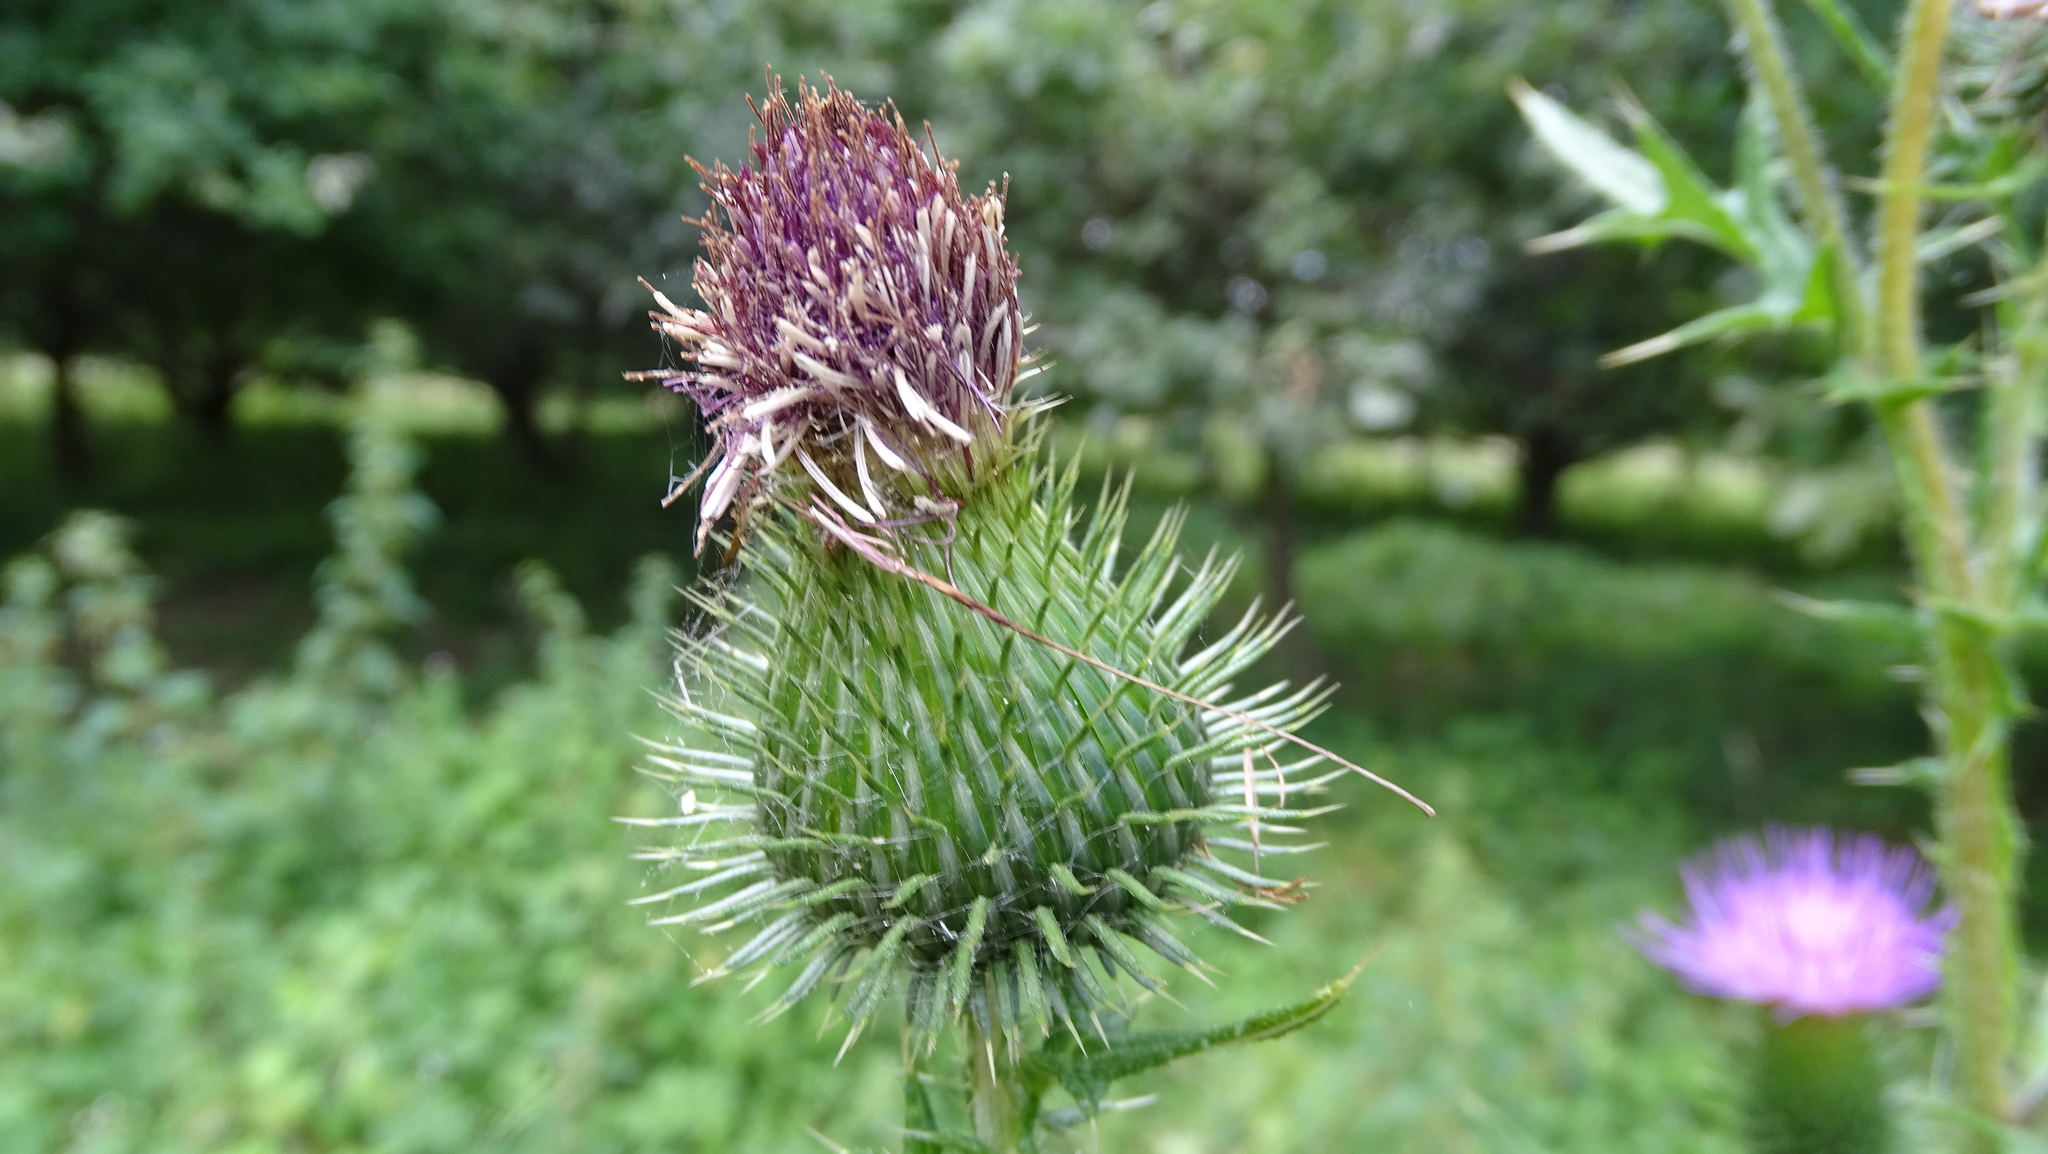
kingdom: Plantae
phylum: Tracheophyta
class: Magnoliopsida
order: Asterales
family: Asteraceae
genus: Cirsium
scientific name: Cirsium vulgare
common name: Bull thistle
